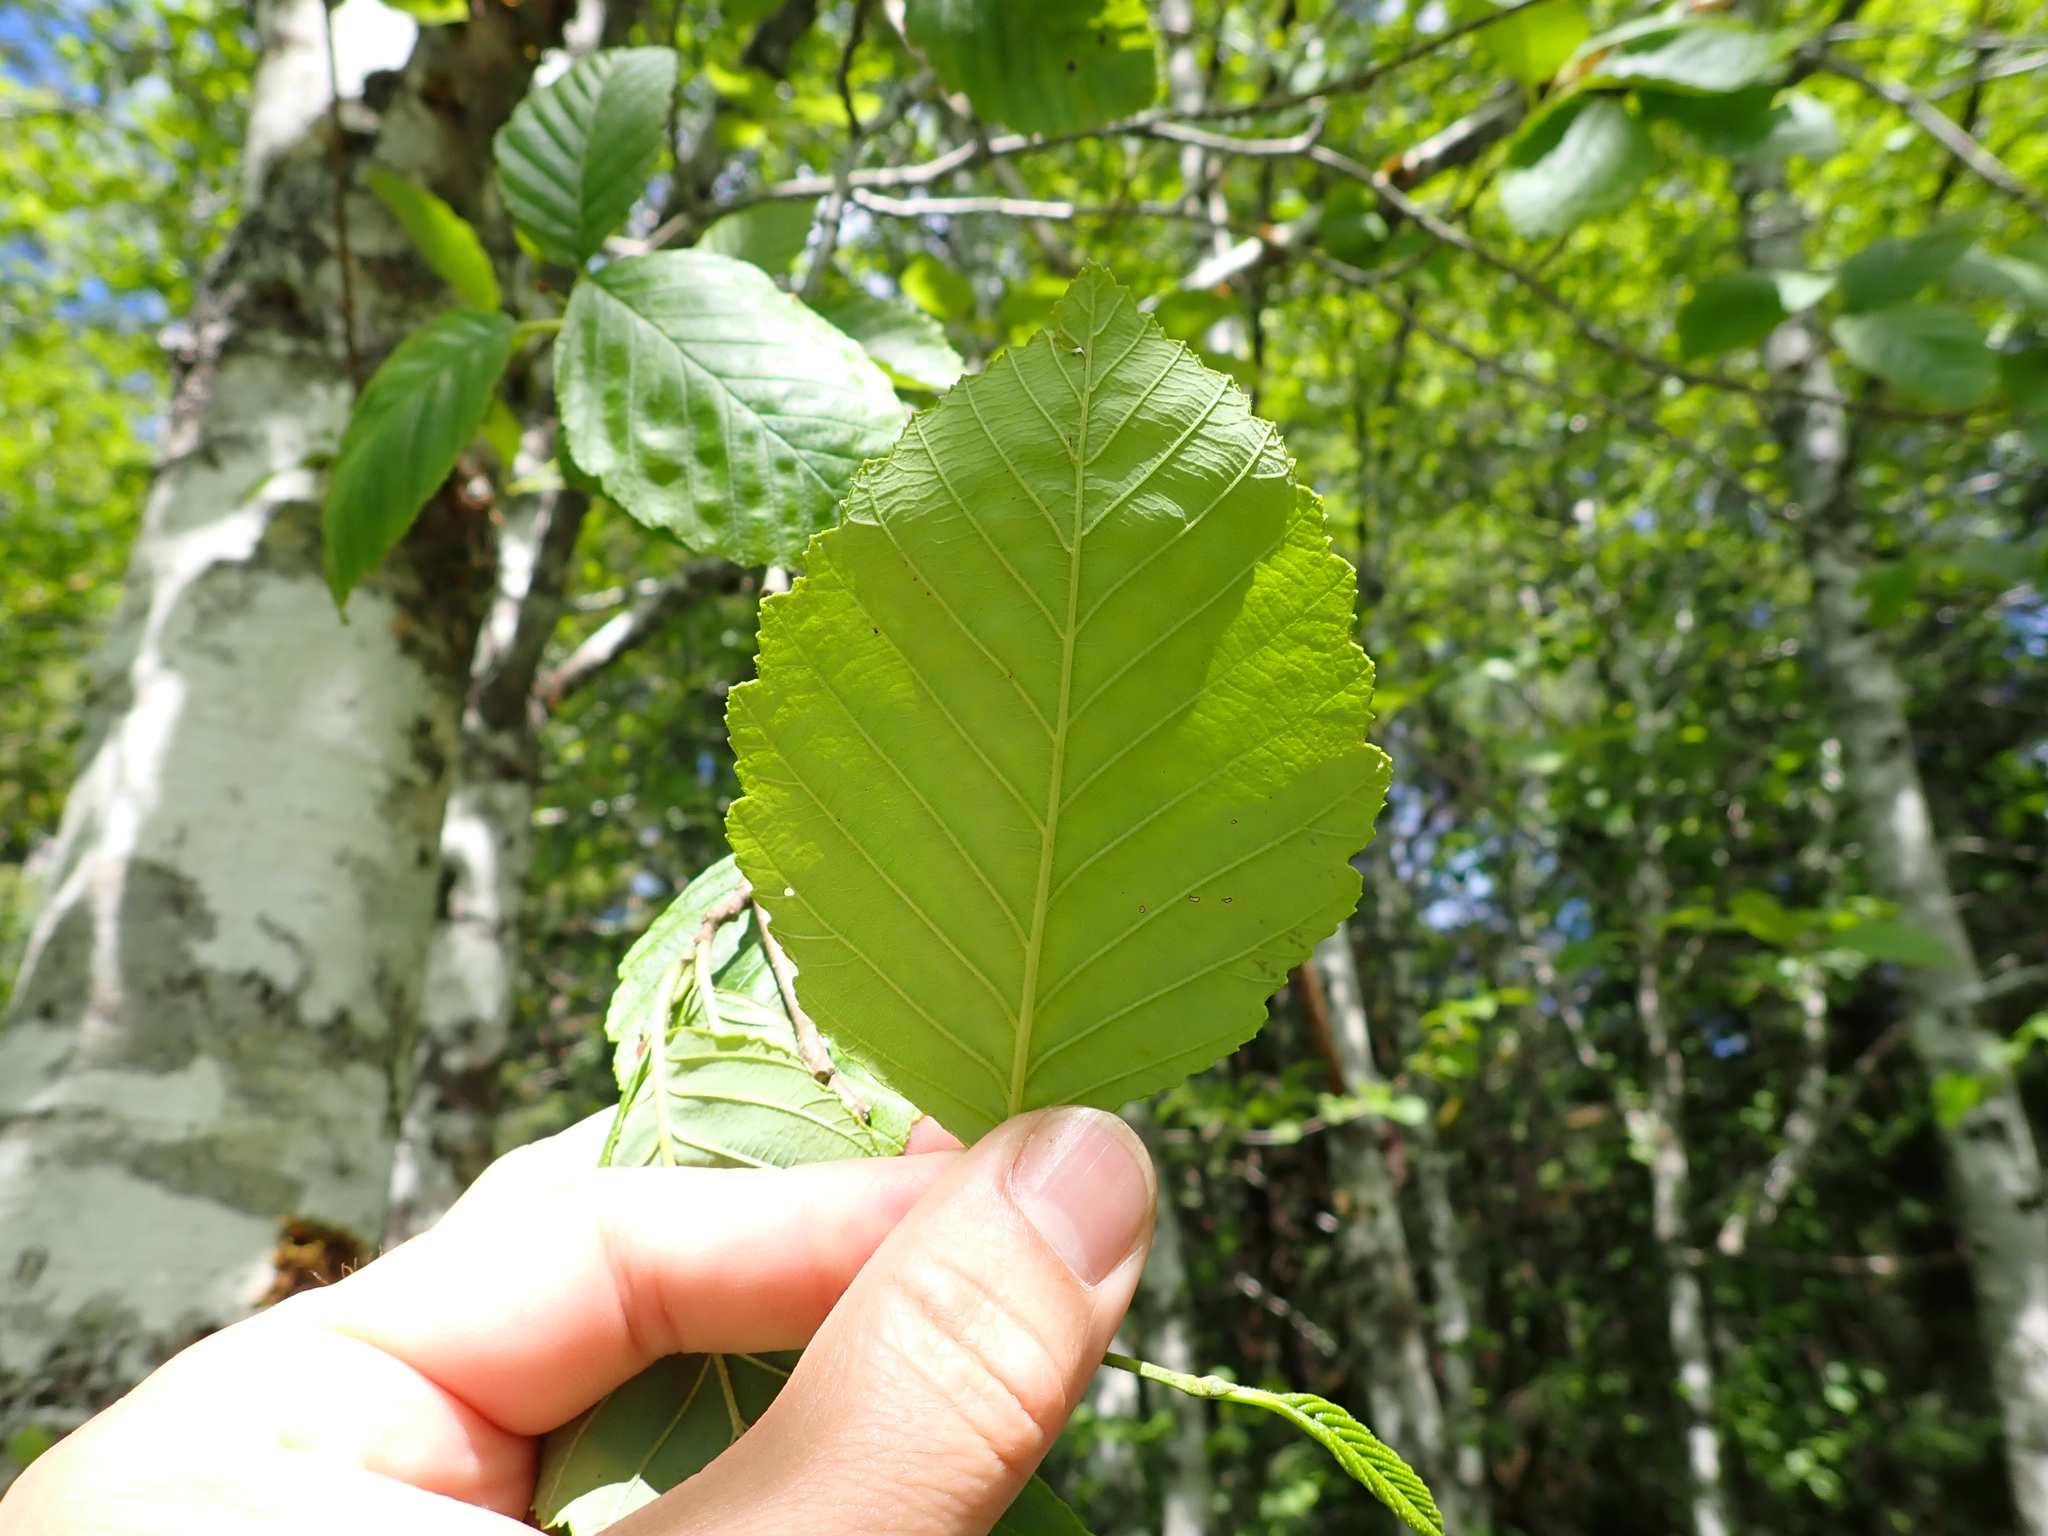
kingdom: Plantae
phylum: Tracheophyta
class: Magnoliopsida
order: Fagales
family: Betulaceae
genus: Alnus
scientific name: Alnus rubra
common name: Red alder
